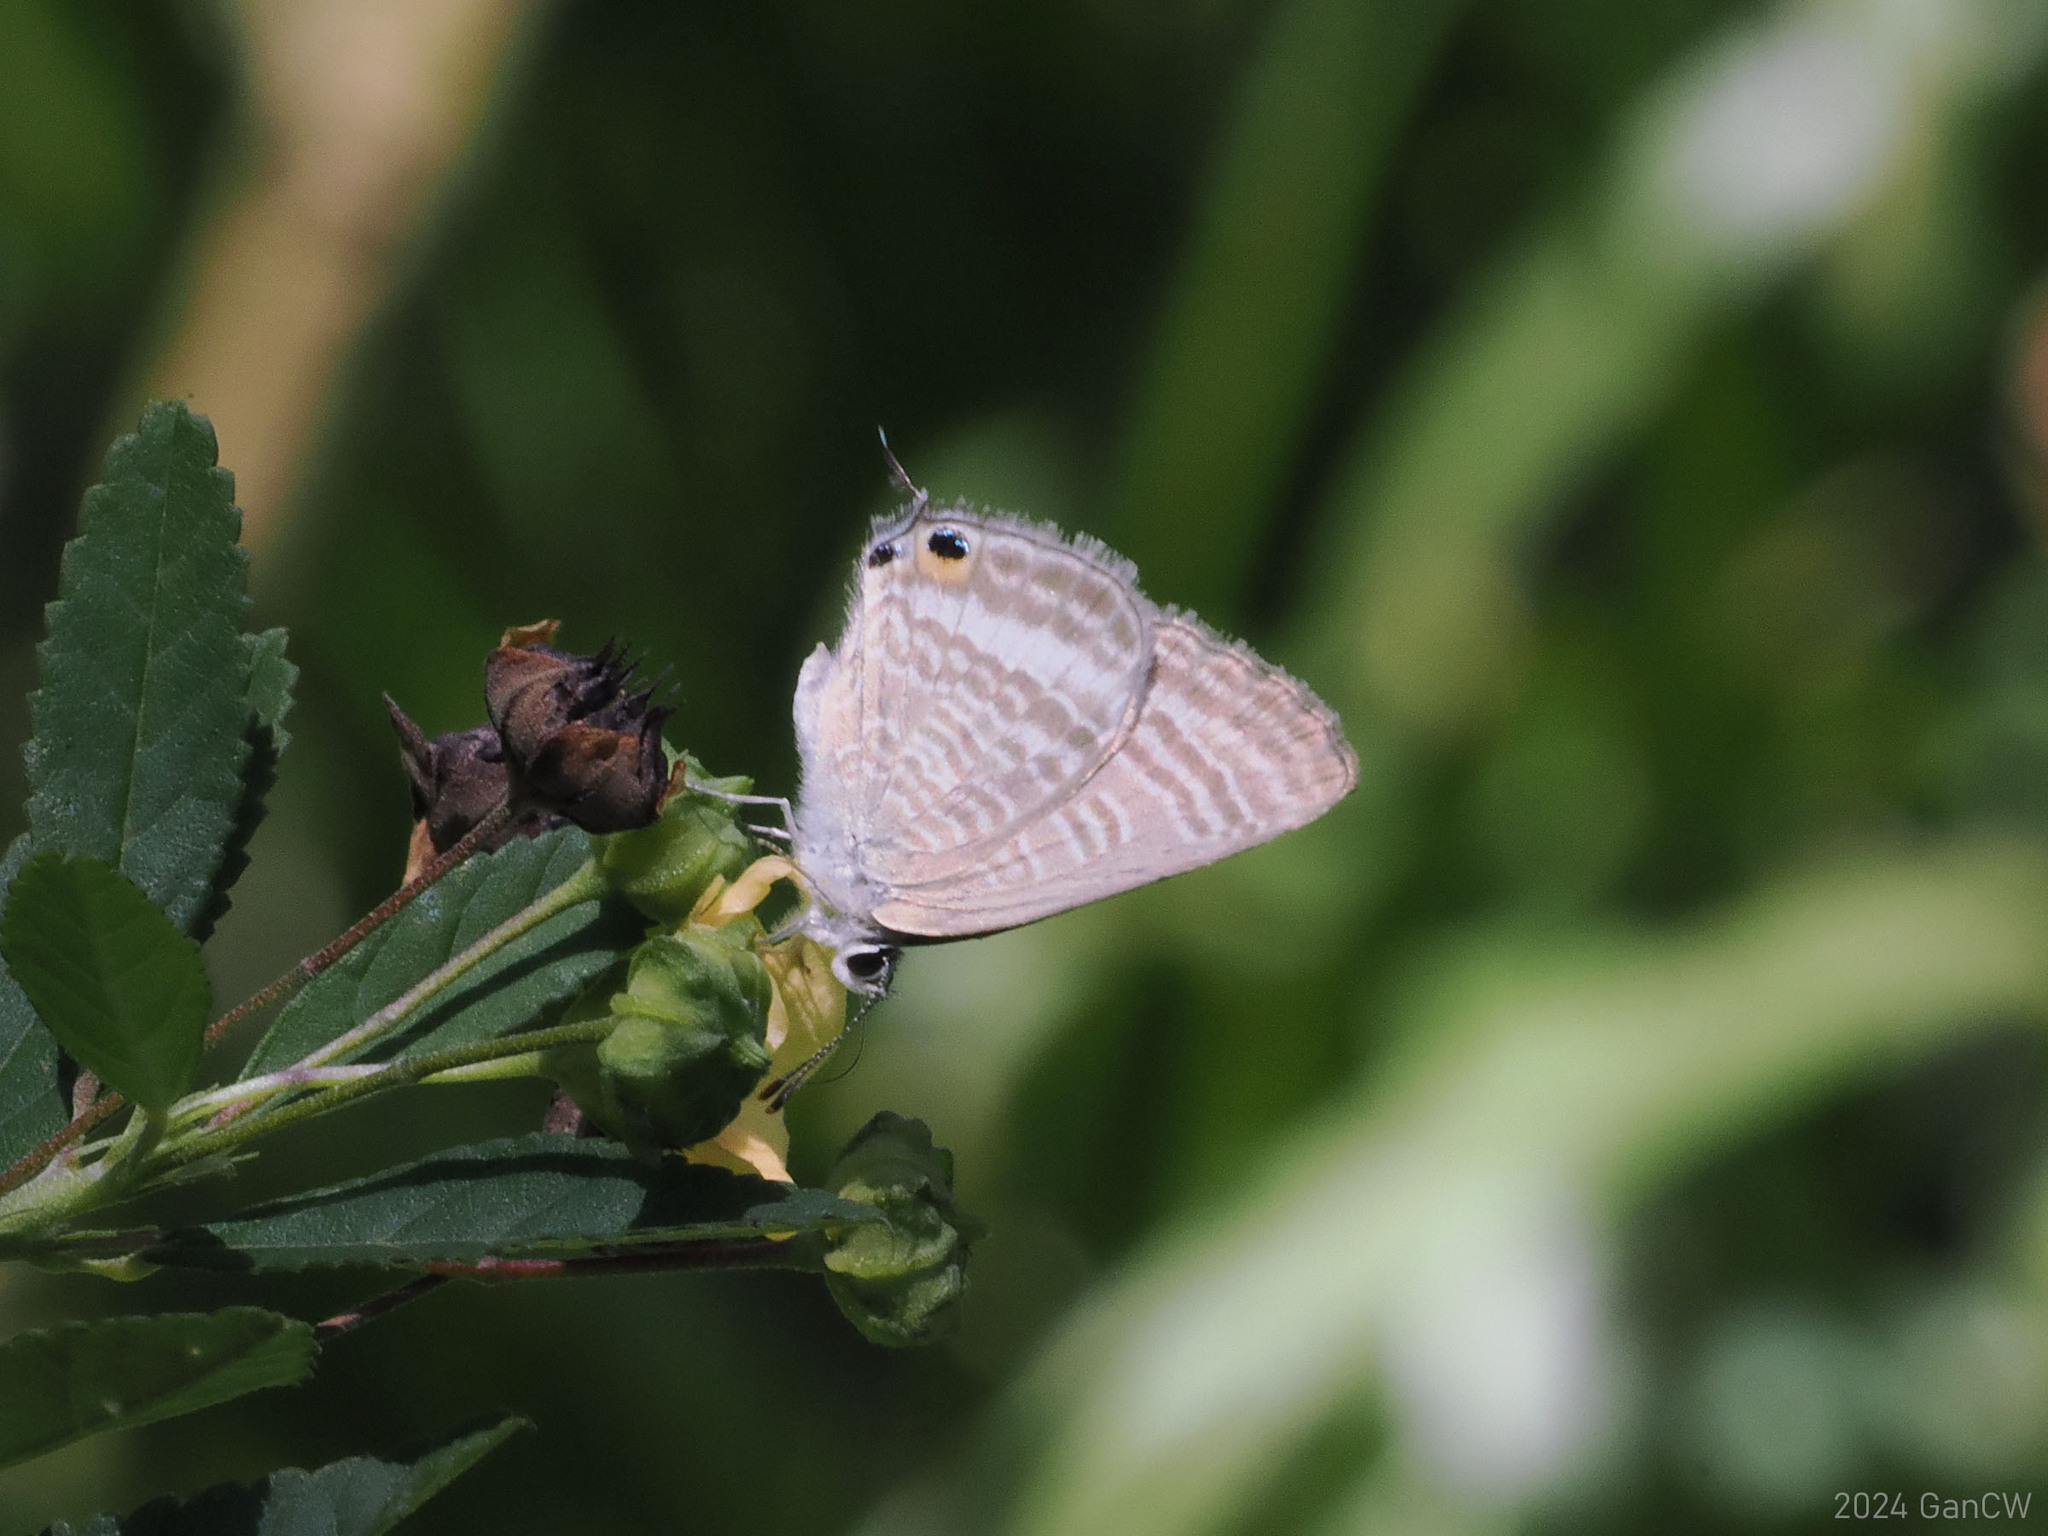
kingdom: Animalia
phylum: Arthropoda
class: Insecta
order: Lepidoptera
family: Lycaenidae
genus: Lampides
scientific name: Lampides boeticus
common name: Long-tailed blue
